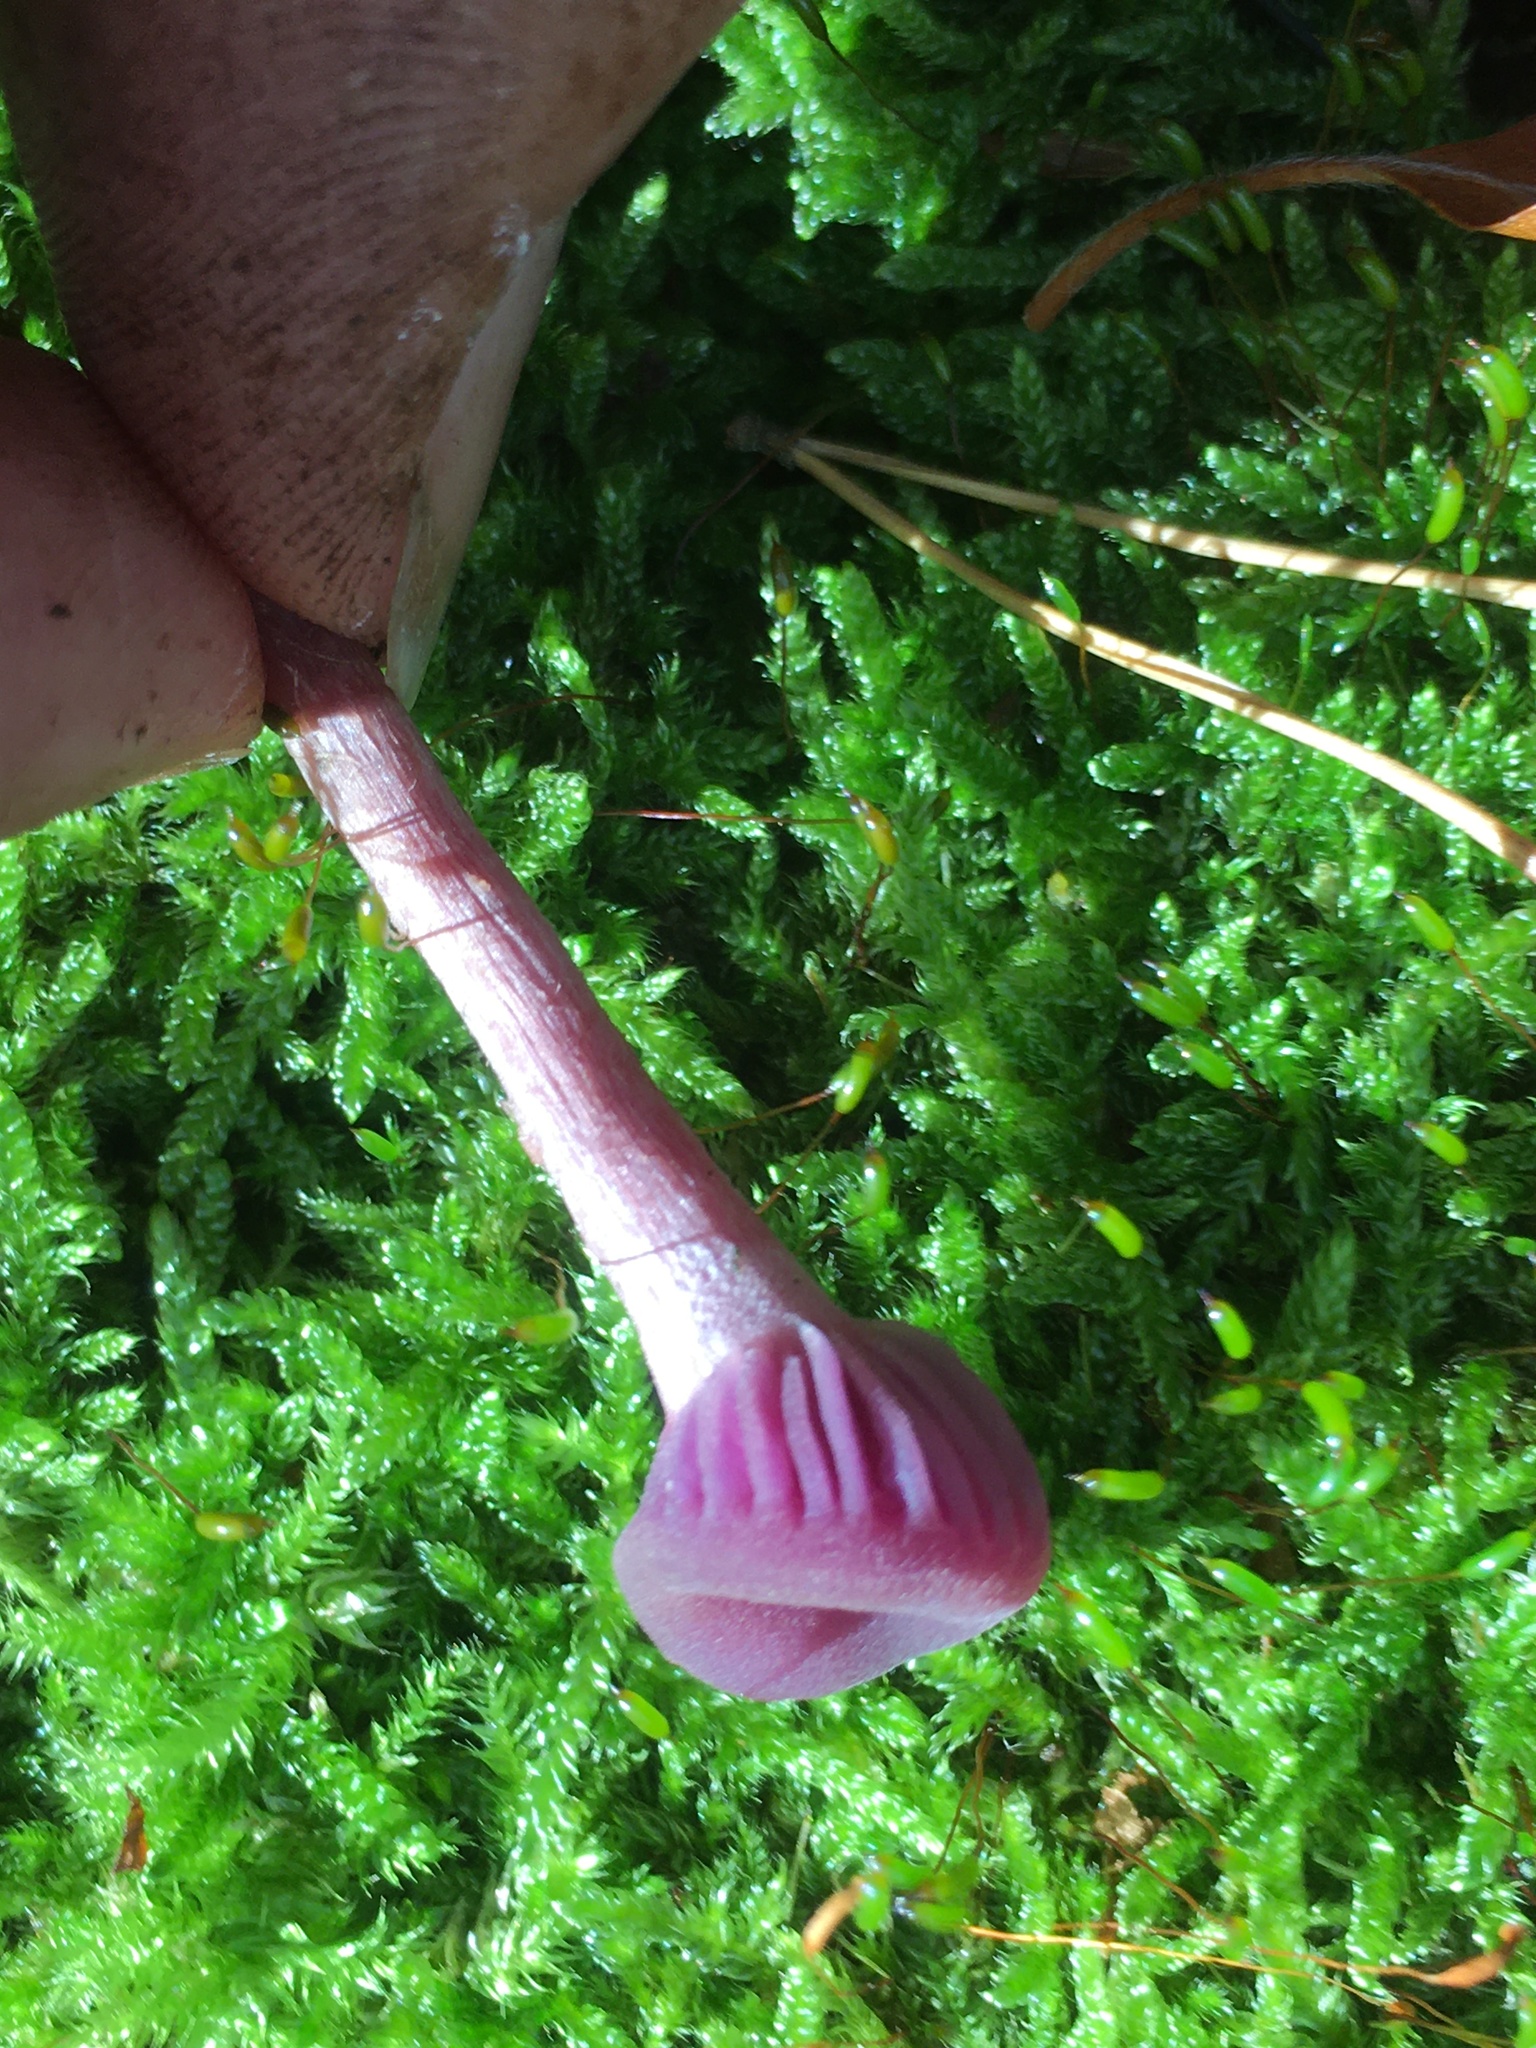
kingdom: Fungi
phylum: Basidiomycota
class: Agaricomycetes
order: Agaricales
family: Hydnangiaceae
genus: Laccaria
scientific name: Laccaria amethystina
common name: Amethyst deceiver
